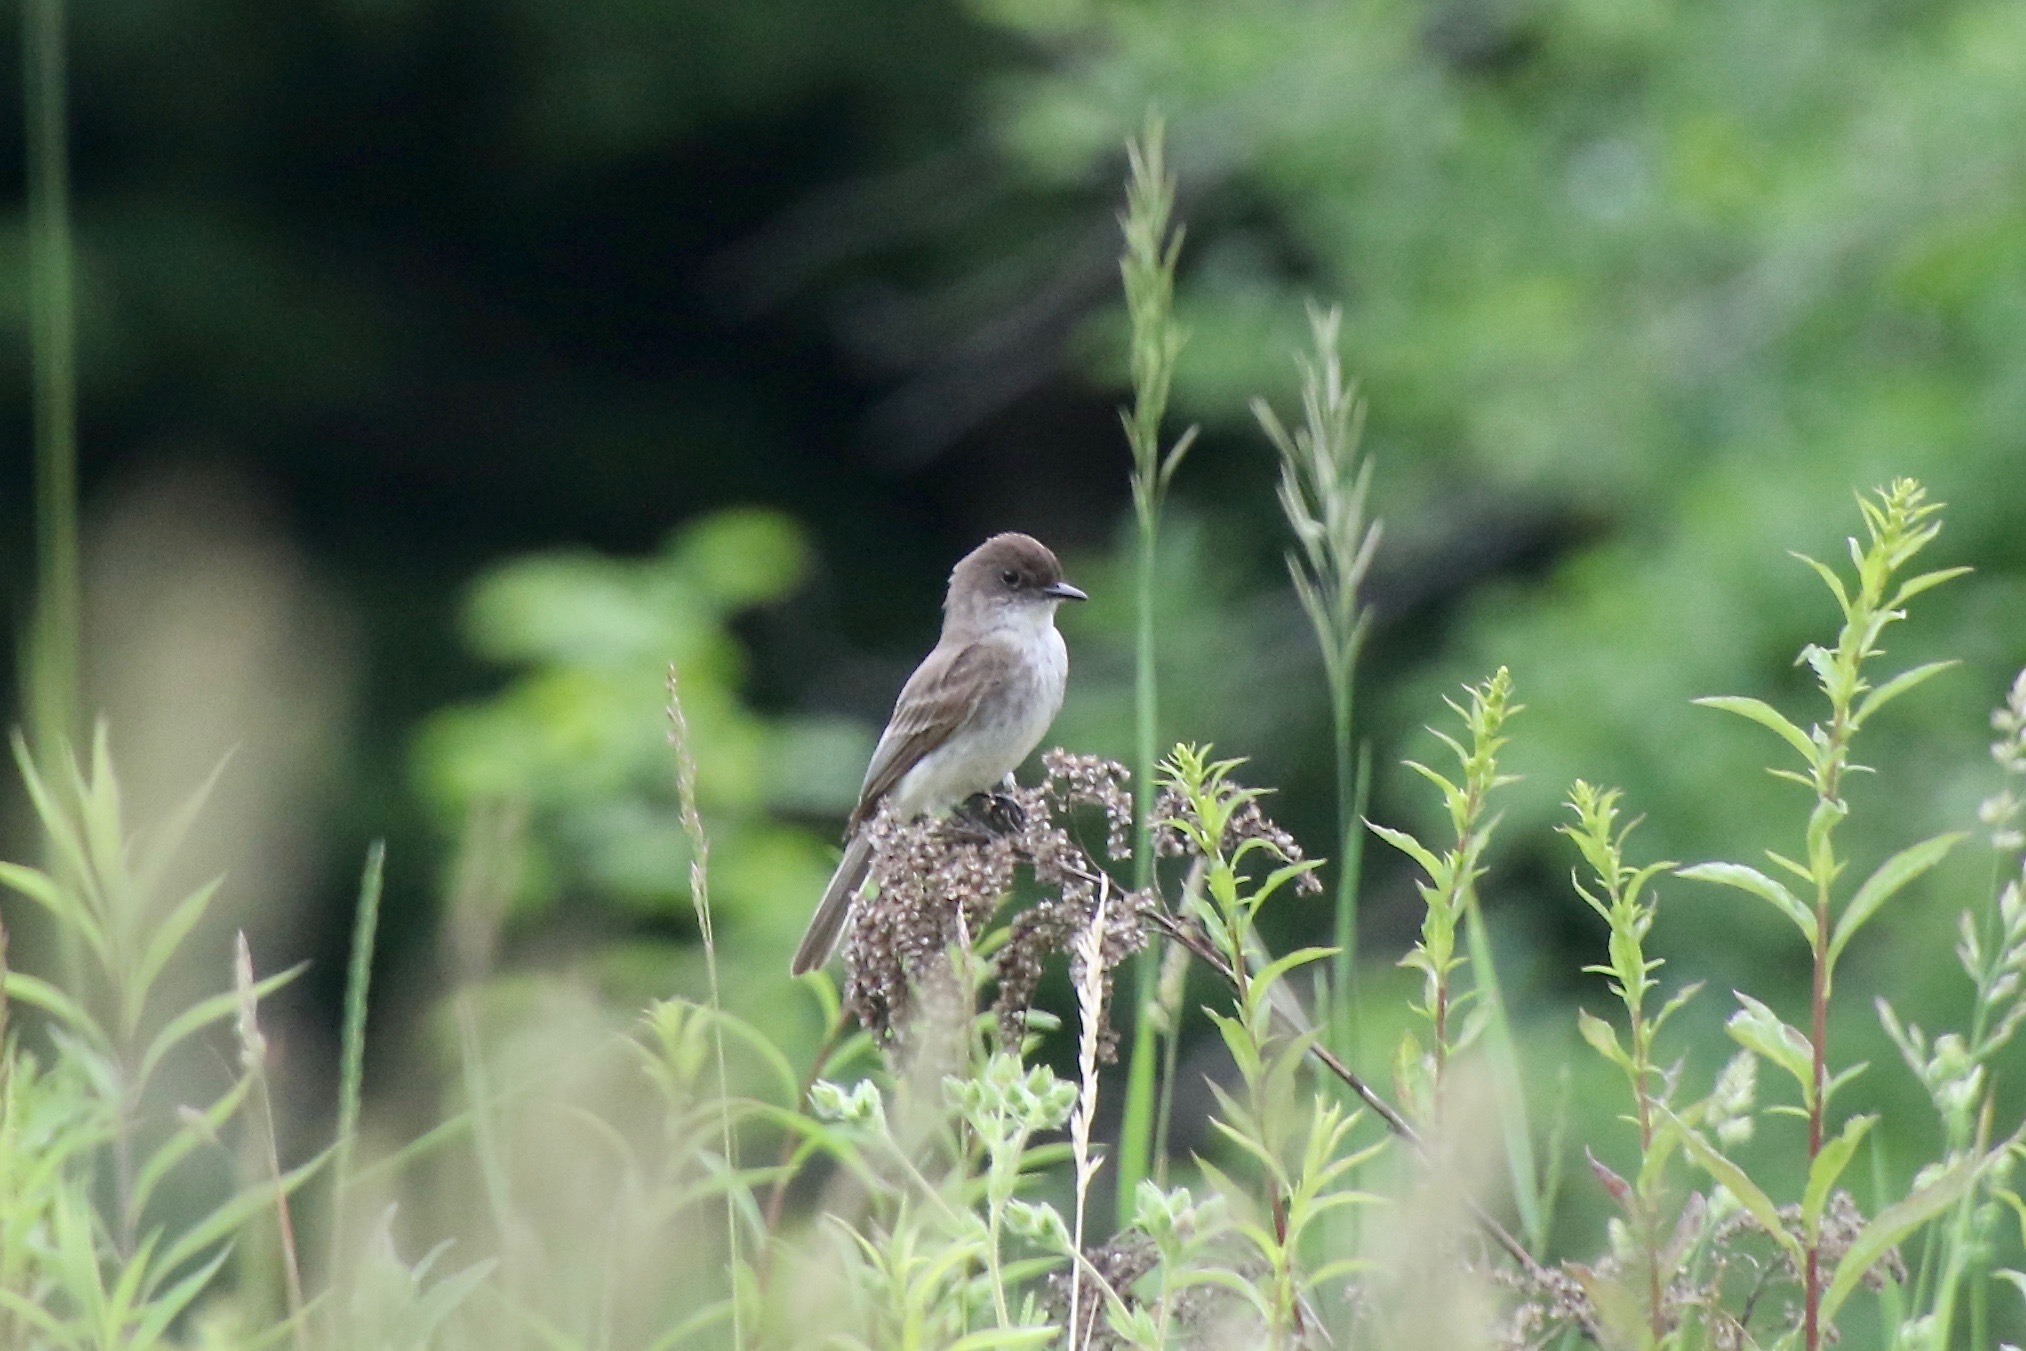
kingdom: Animalia
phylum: Chordata
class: Aves
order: Passeriformes
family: Tyrannidae
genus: Sayornis
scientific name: Sayornis phoebe
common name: Eastern phoebe
